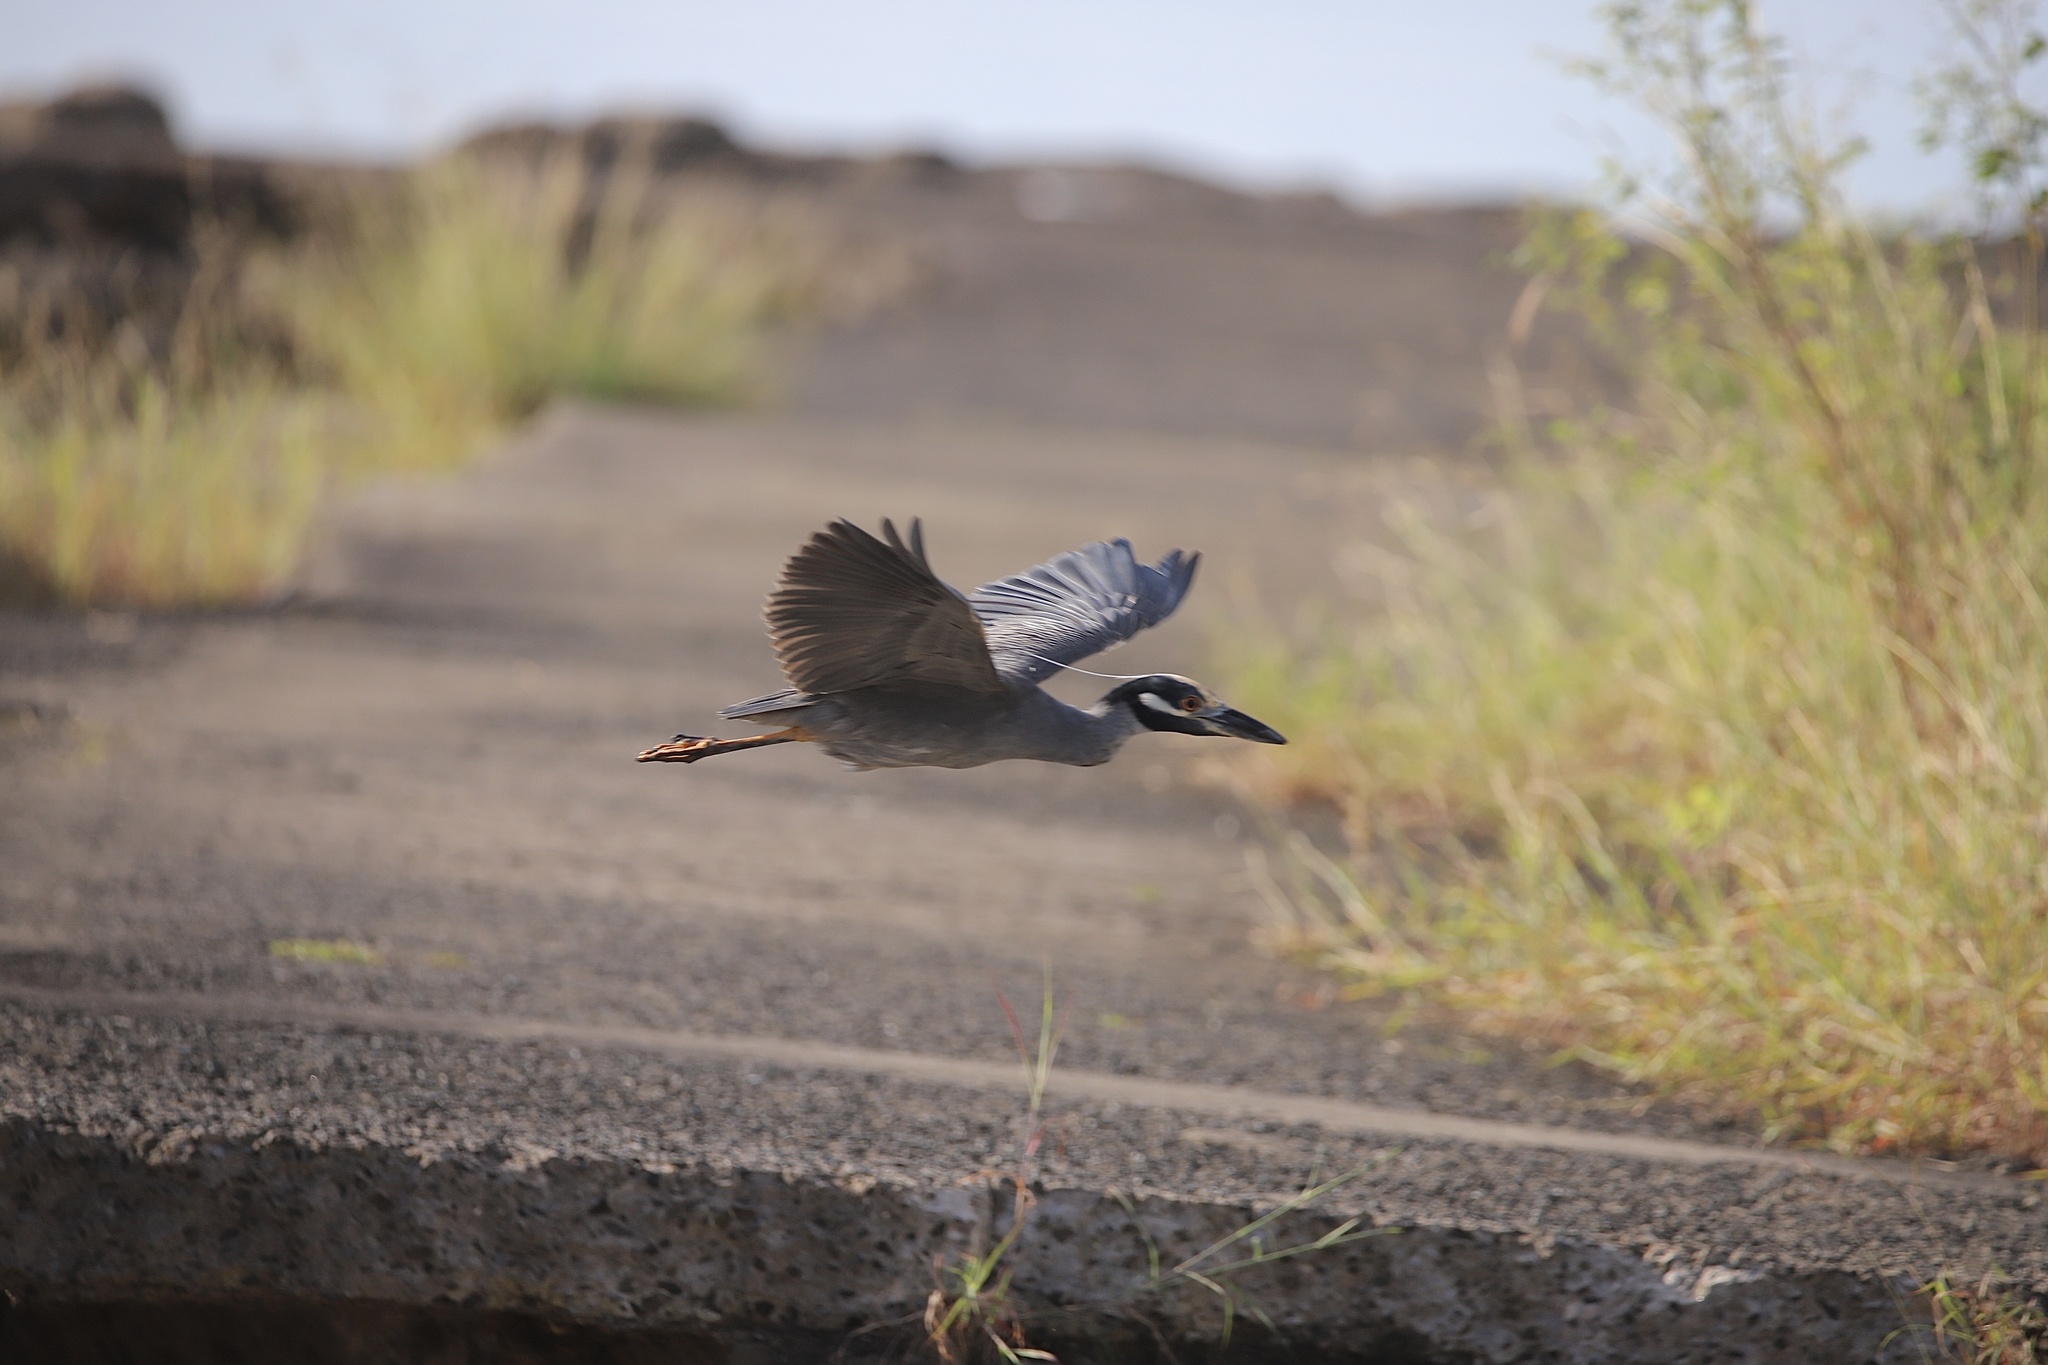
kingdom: Animalia
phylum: Chordata
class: Aves
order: Pelecaniformes
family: Ardeidae
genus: Nyctanassa
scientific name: Nyctanassa violacea
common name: Yellow-crowned night heron
